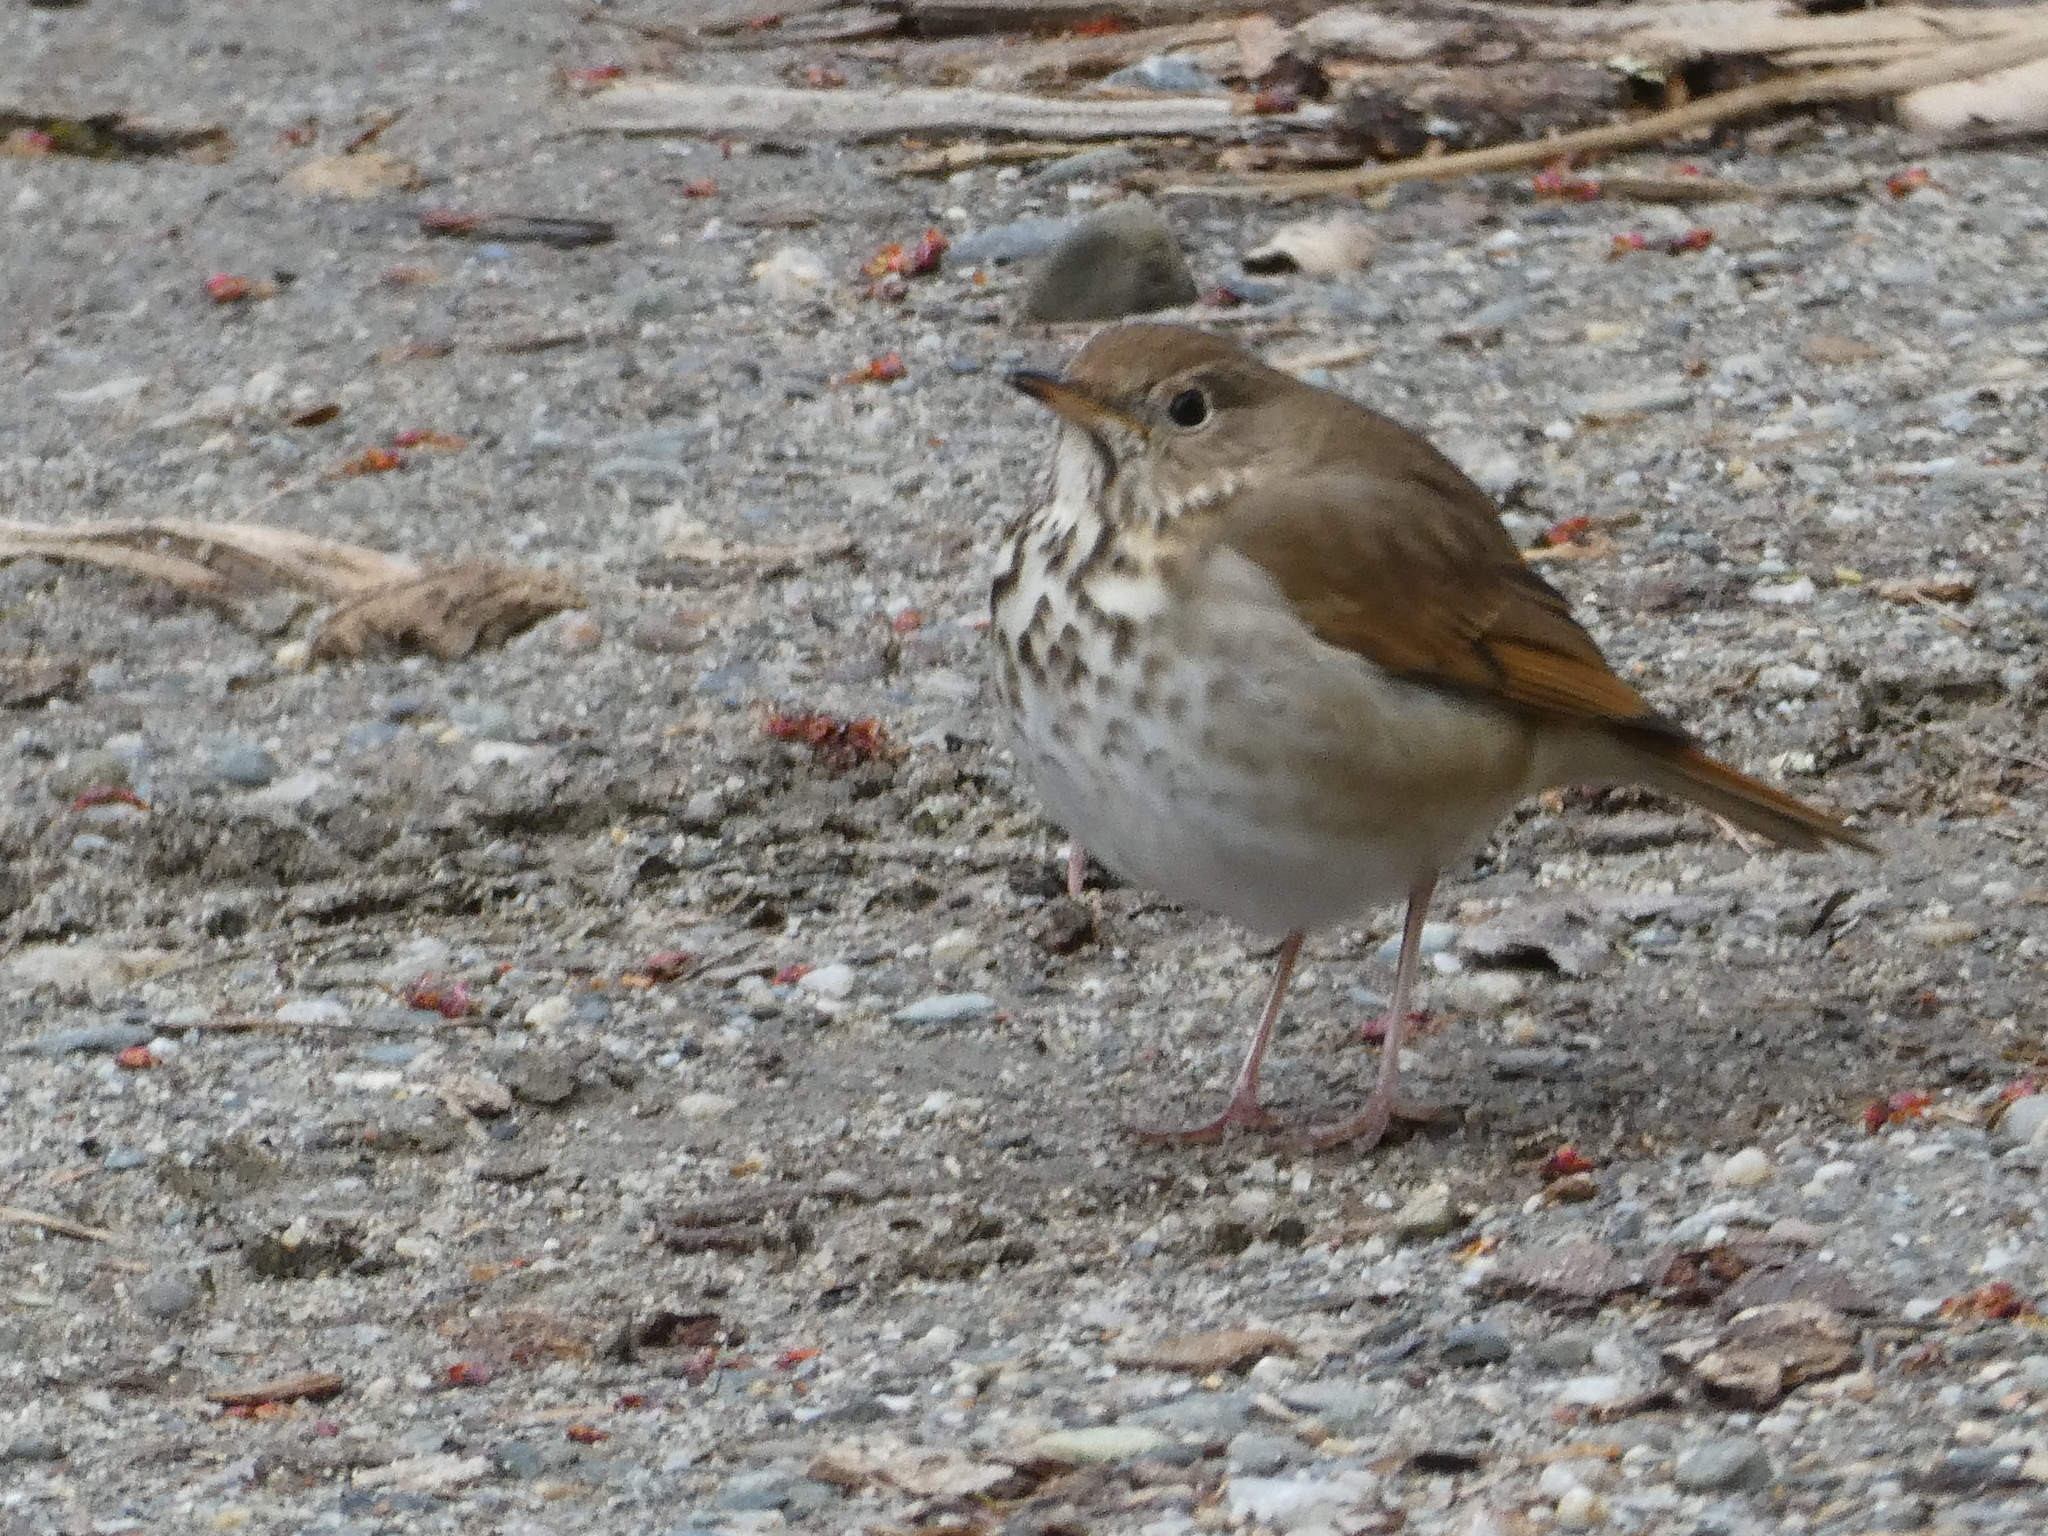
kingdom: Animalia
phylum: Chordata
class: Aves
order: Passeriformes
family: Turdidae
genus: Catharus
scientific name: Catharus guttatus
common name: Hermit thrush
